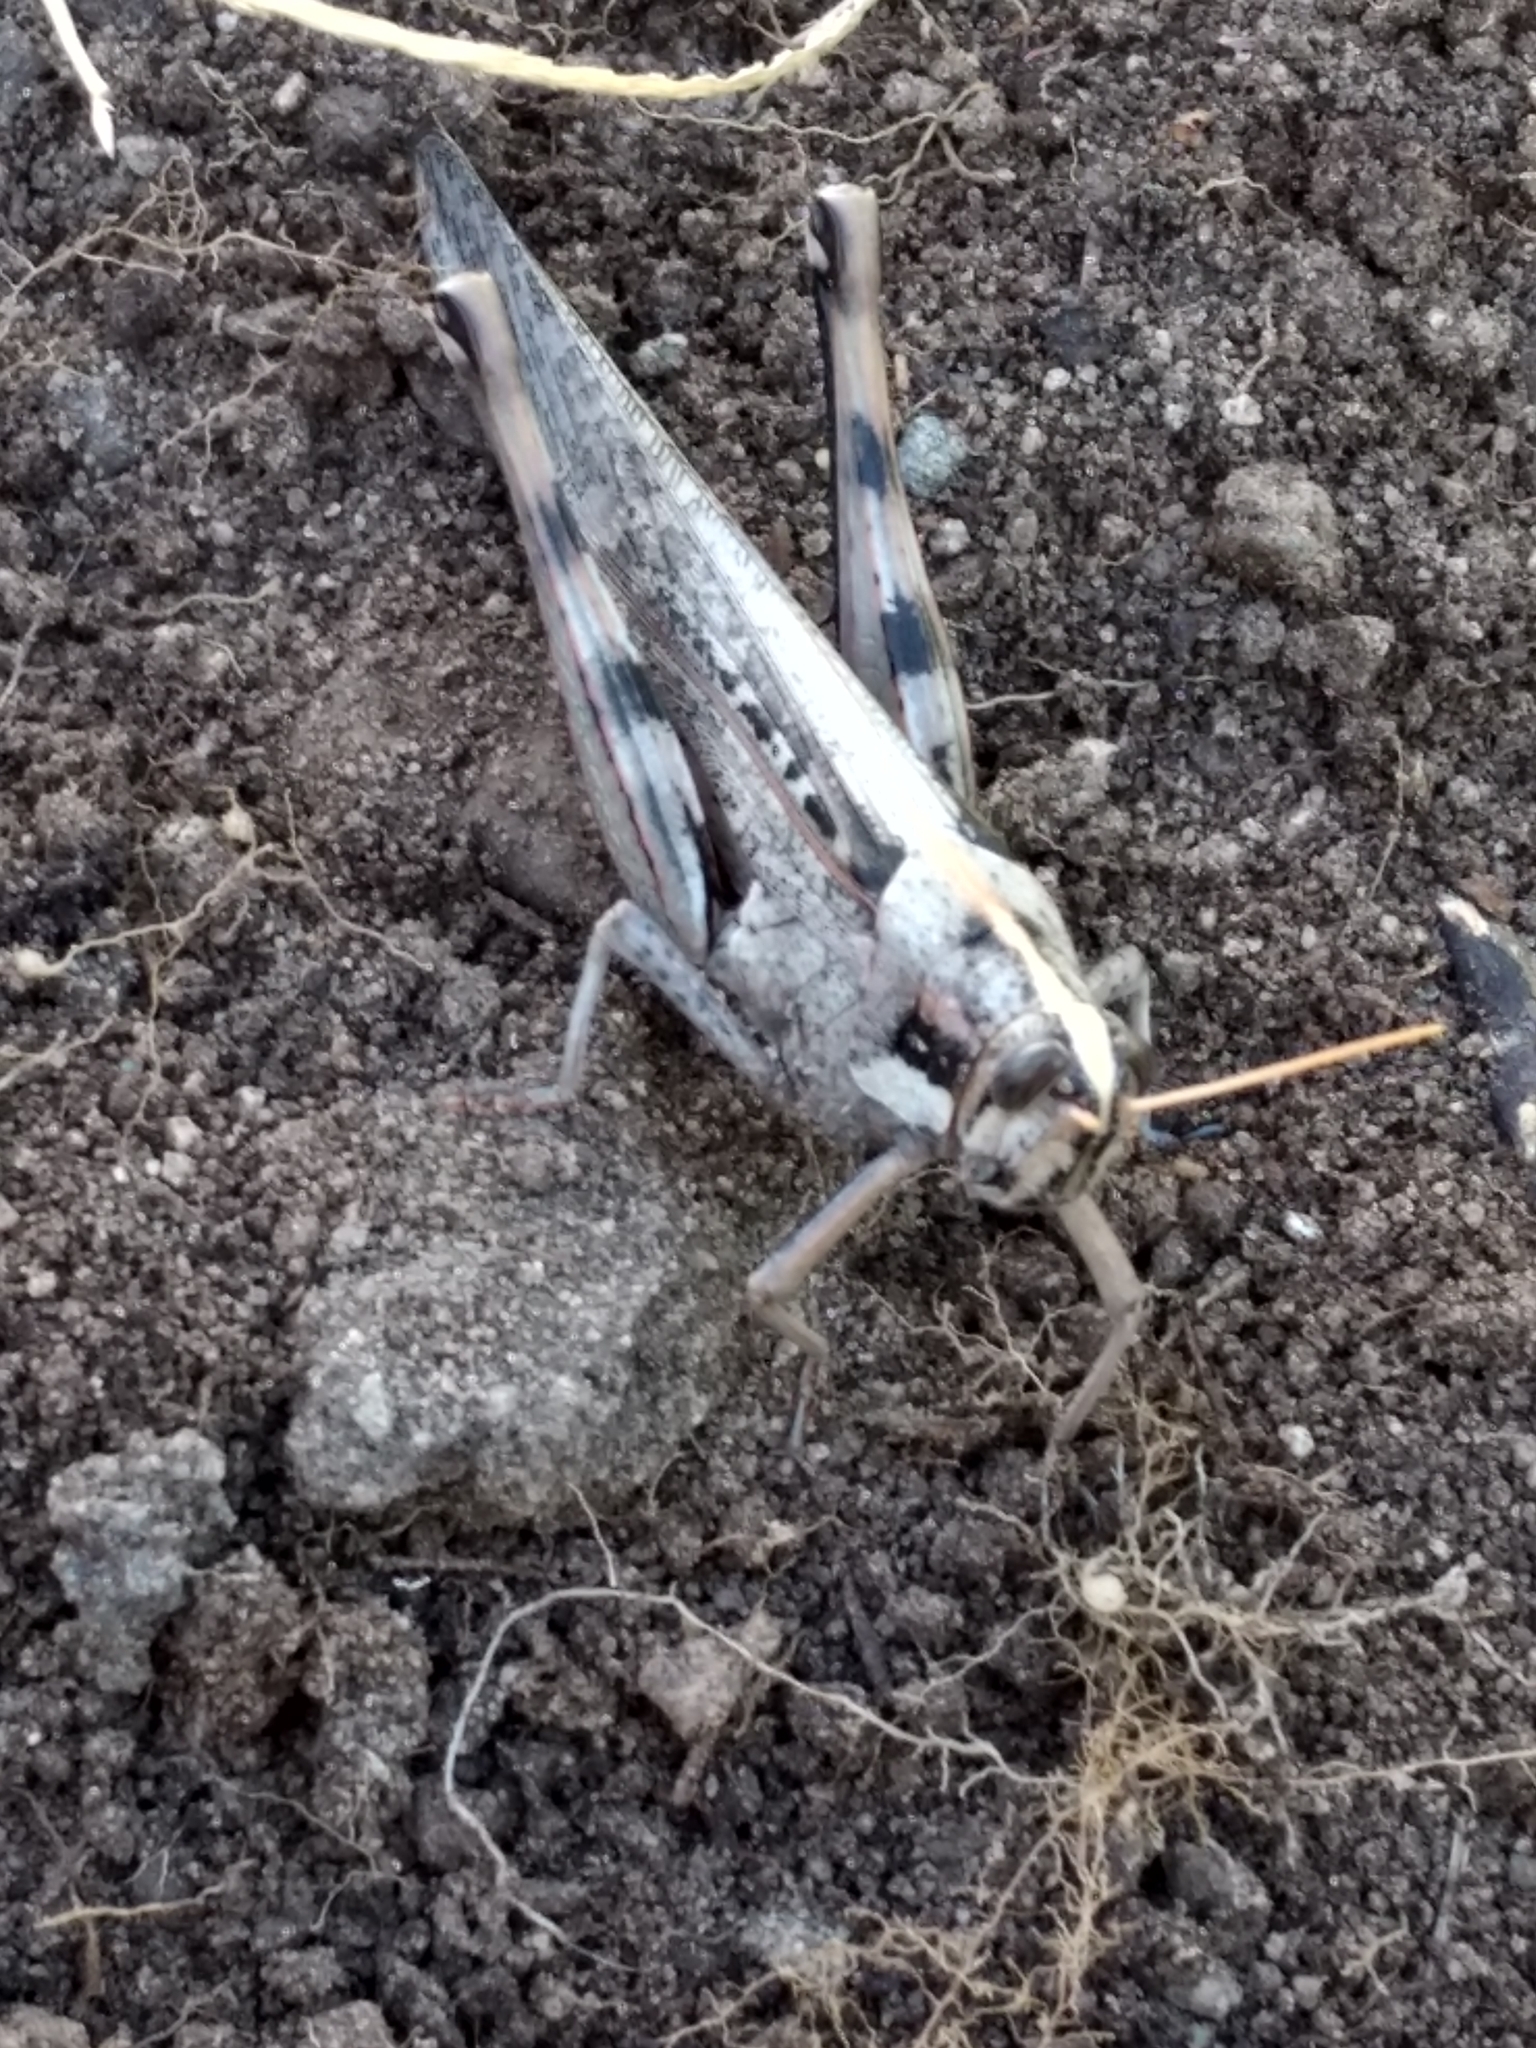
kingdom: Animalia
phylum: Arthropoda
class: Insecta
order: Orthoptera
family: Acrididae
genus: Schistocerca
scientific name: Schistocerca nitens
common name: Vagrant grasshopper
